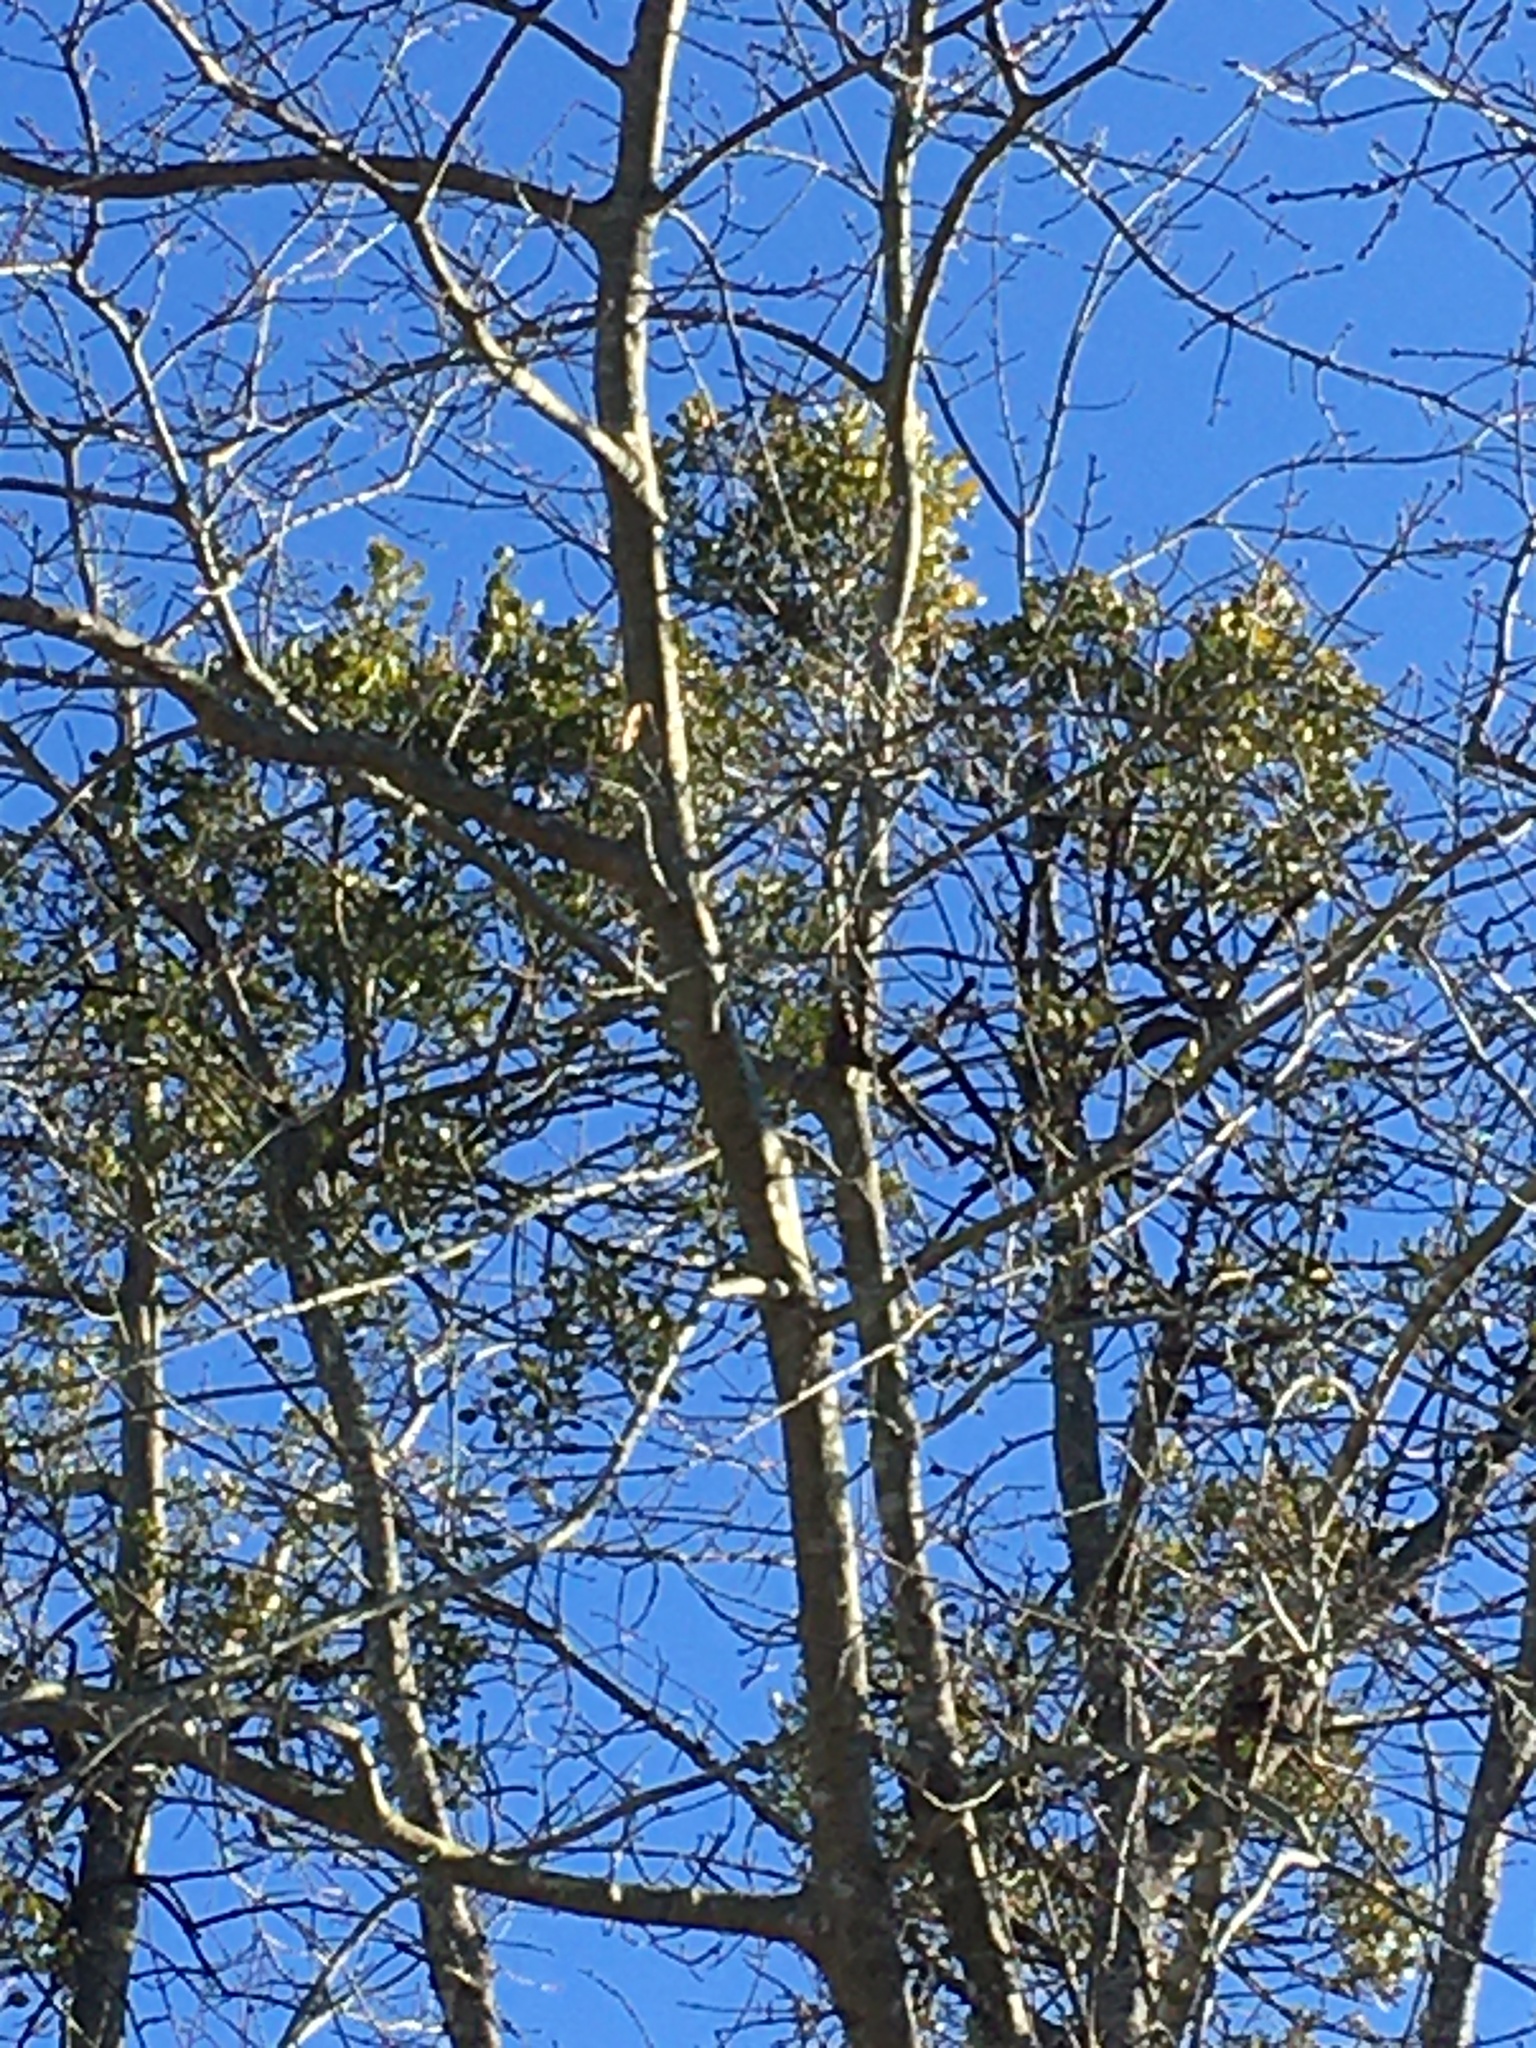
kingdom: Plantae
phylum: Tracheophyta
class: Magnoliopsida
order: Santalales
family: Viscaceae
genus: Phoradendron
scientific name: Phoradendron leucarpum
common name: Pacific mistletoe
